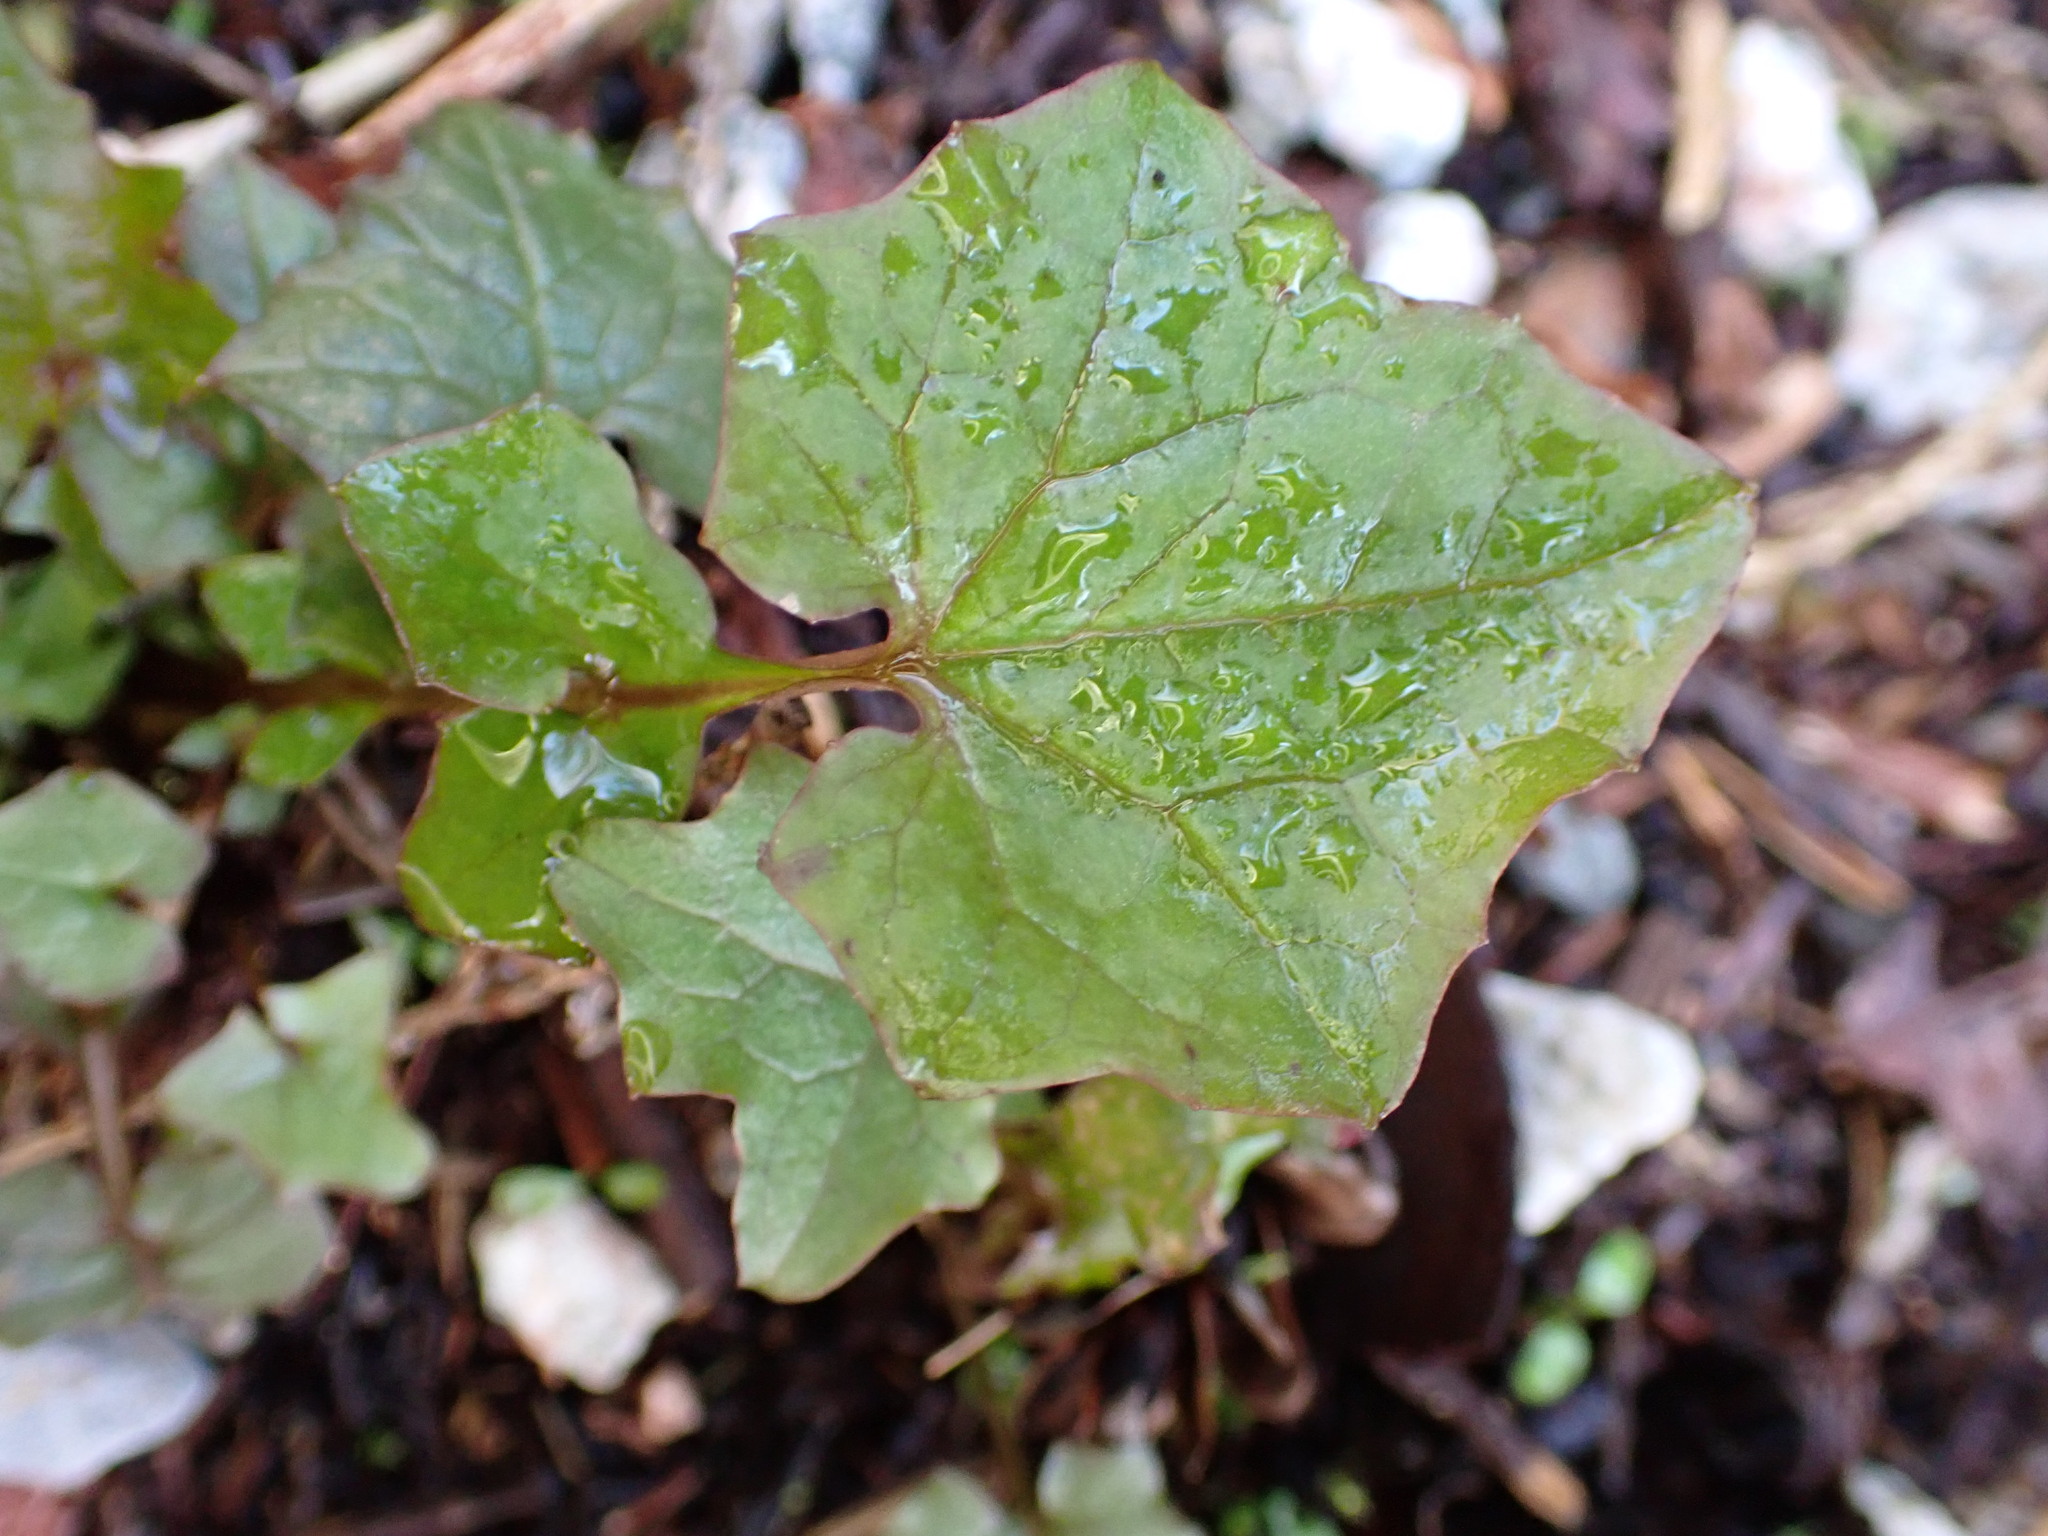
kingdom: Plantae
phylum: Tracheophyta
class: Magnoliopsida
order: Asterales
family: Asteraceae
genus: Mycelis
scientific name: Mycelis muralis
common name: Wall lettuce
